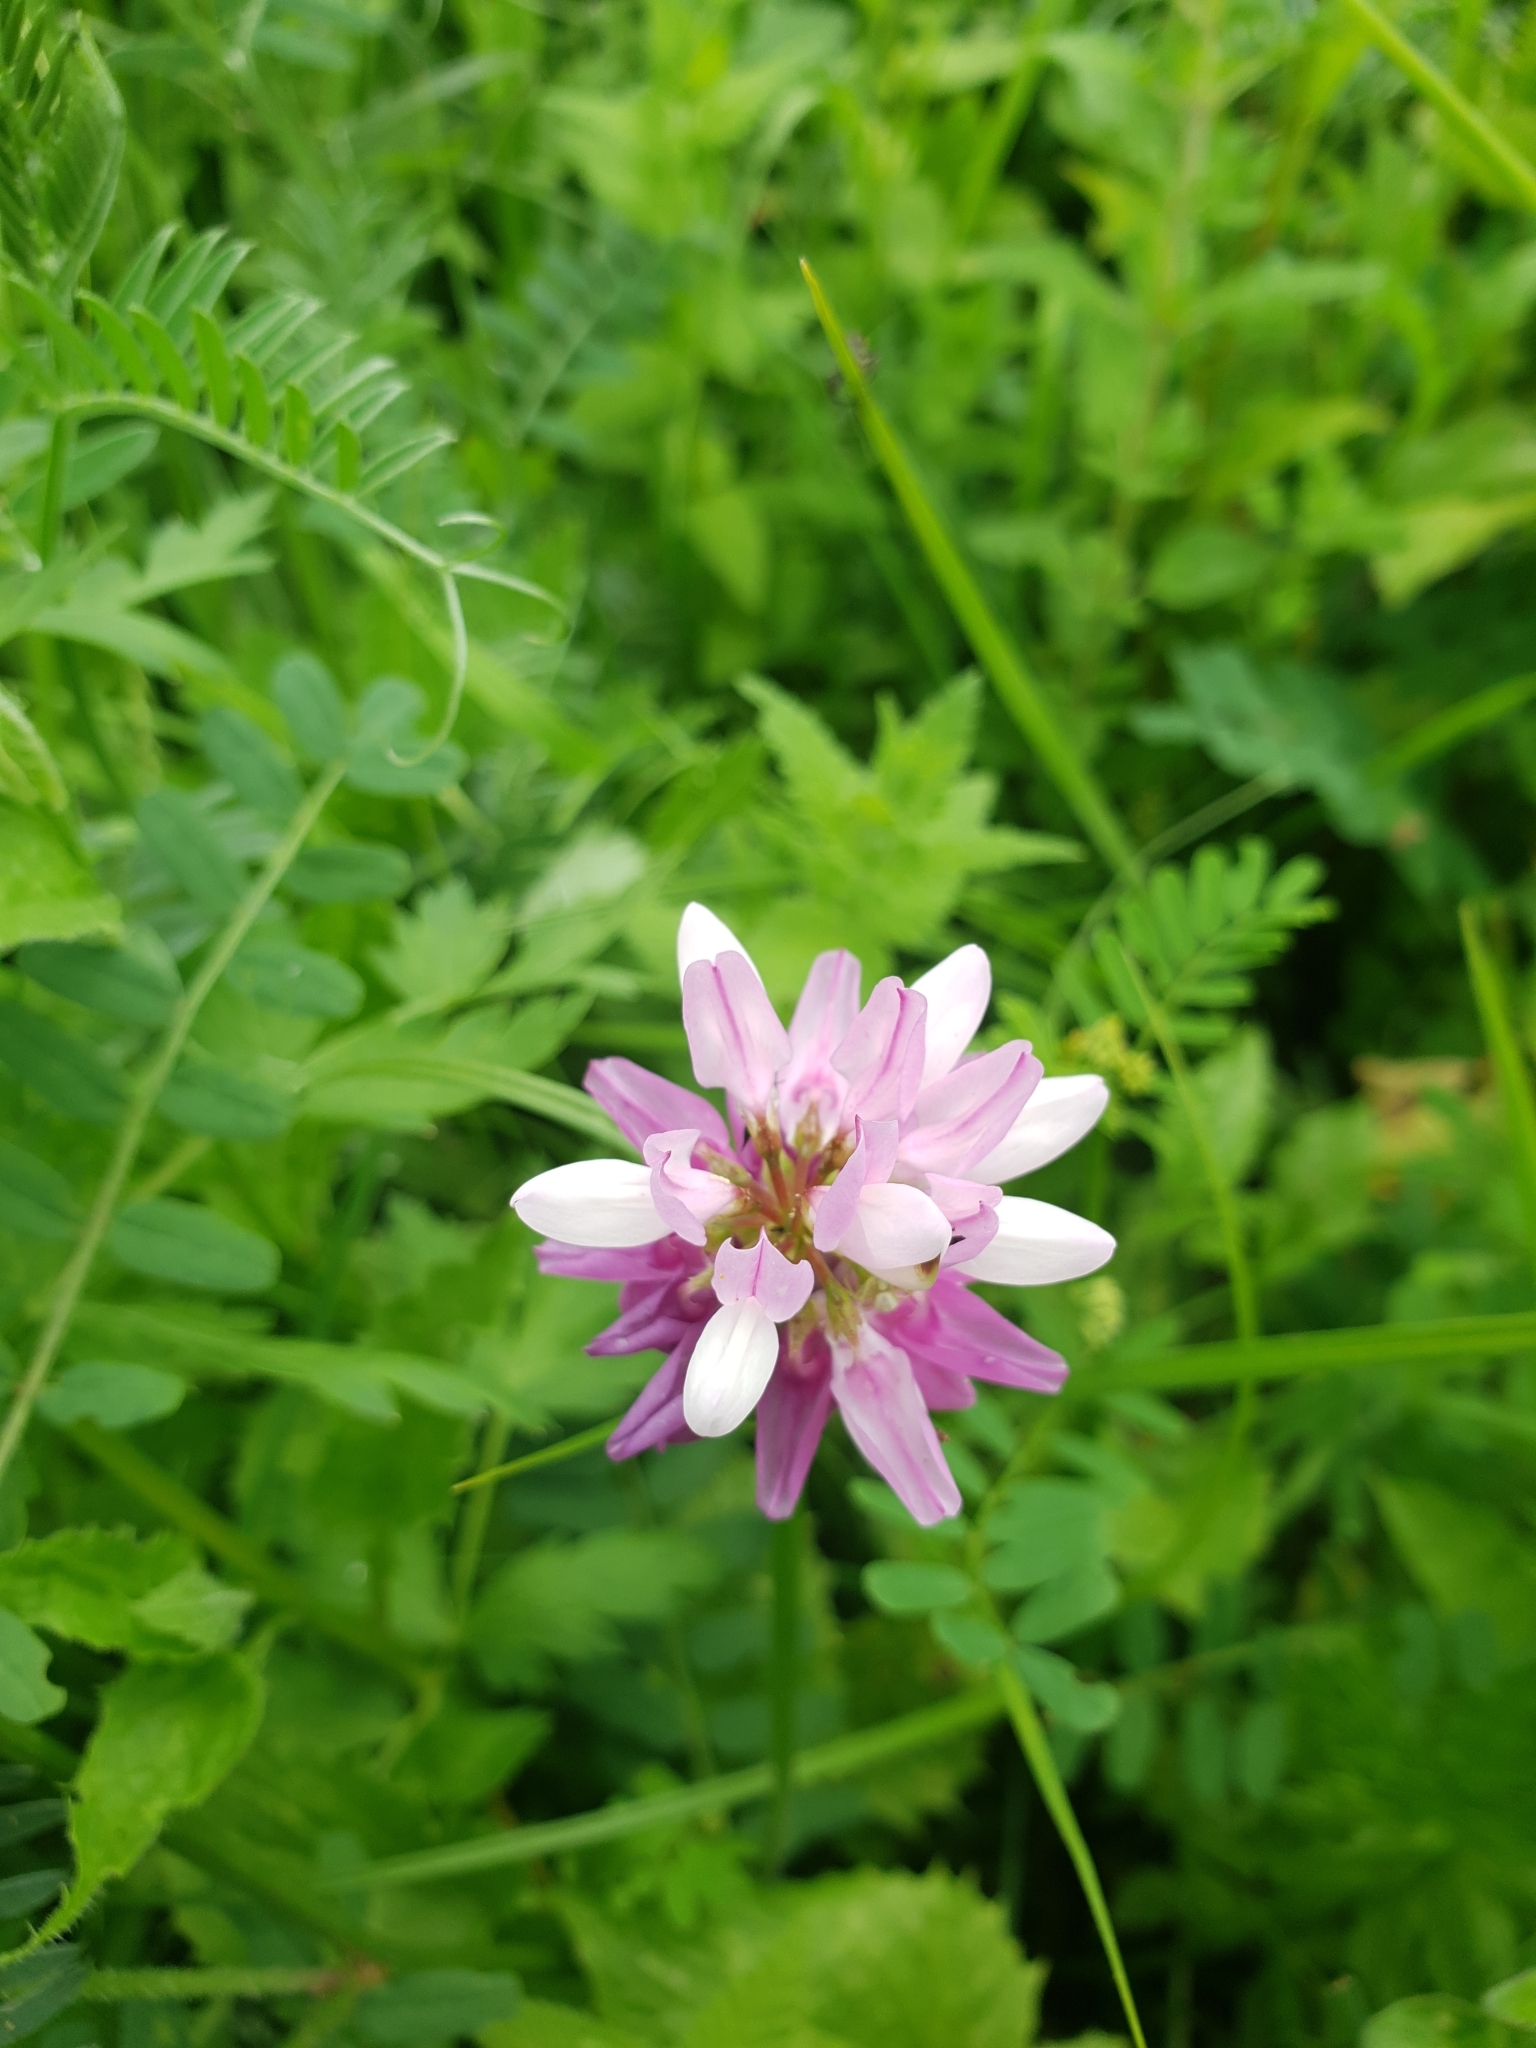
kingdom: Plantae
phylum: Tracheophyta
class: Magnoliopsida
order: Fabales
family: Fabaceae
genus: Coronilla
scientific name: Coronilla varia
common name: Crownvetch
